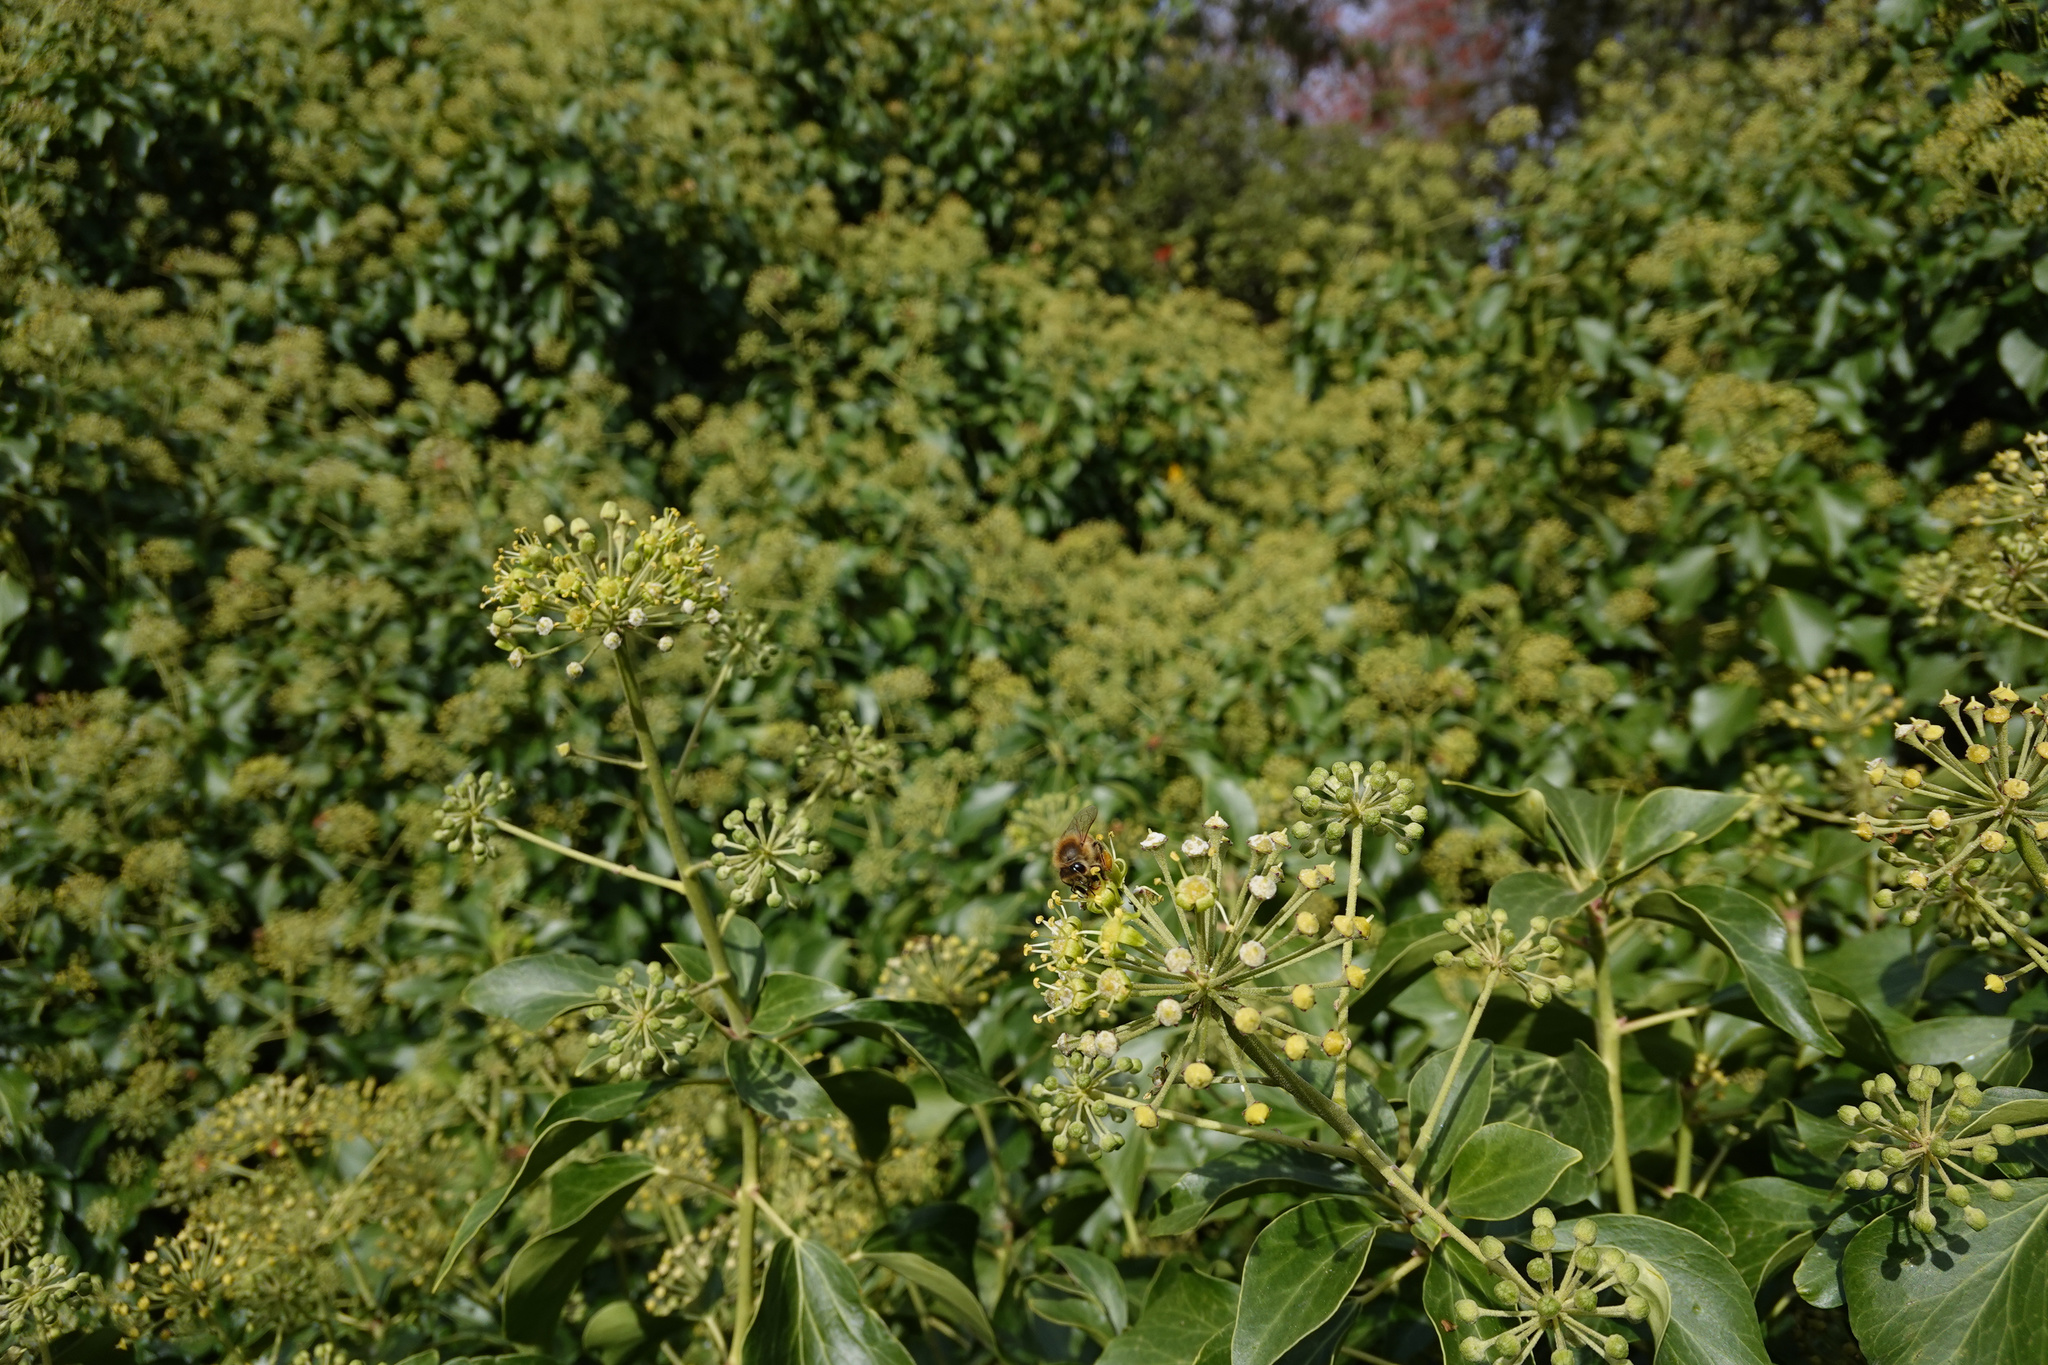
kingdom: Plantae
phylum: Tracheophyta
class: Magnoliopsida
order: Apiales
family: Araliaceae
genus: Hedera
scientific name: Hedera helix
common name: Ivy
